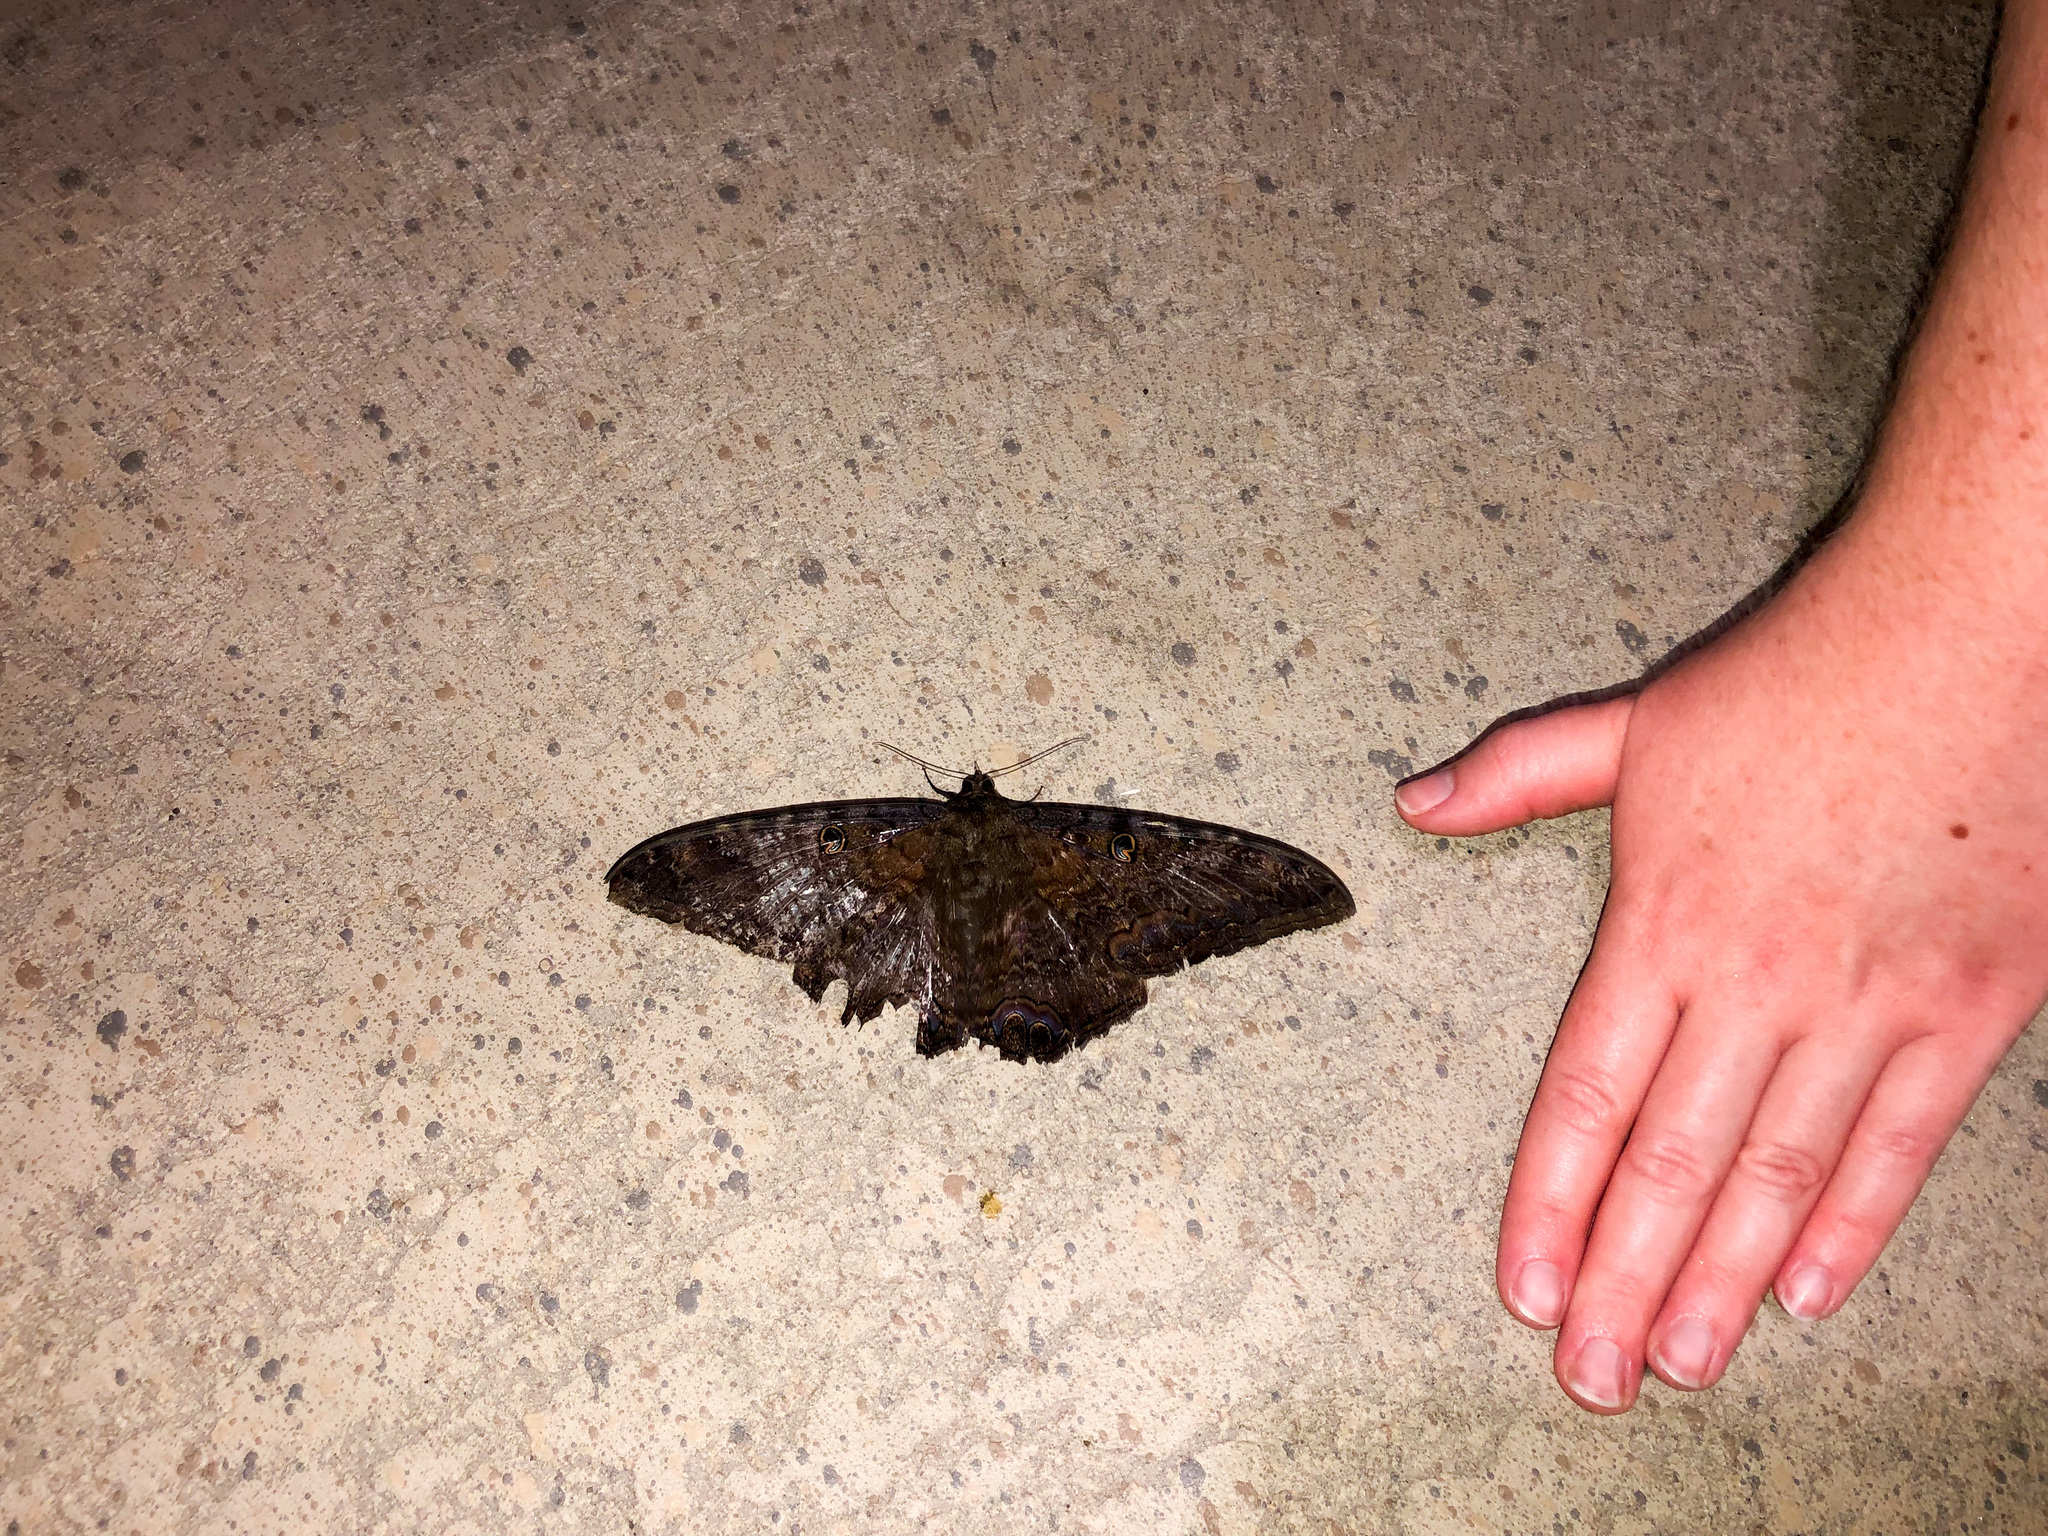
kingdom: Animalia
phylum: Arthropoda
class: Insecta
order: Lepidoptera
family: Erebidae
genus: Ascalapha
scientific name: Ascalapha odorata
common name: Black witch
